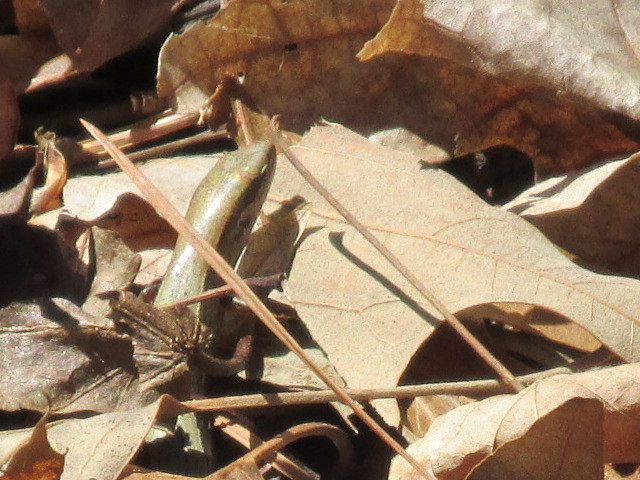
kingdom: Animalia
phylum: Chordata
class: Squamata
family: Scincidae
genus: Scincella
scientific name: Scincella lateralis
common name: Ground skink
